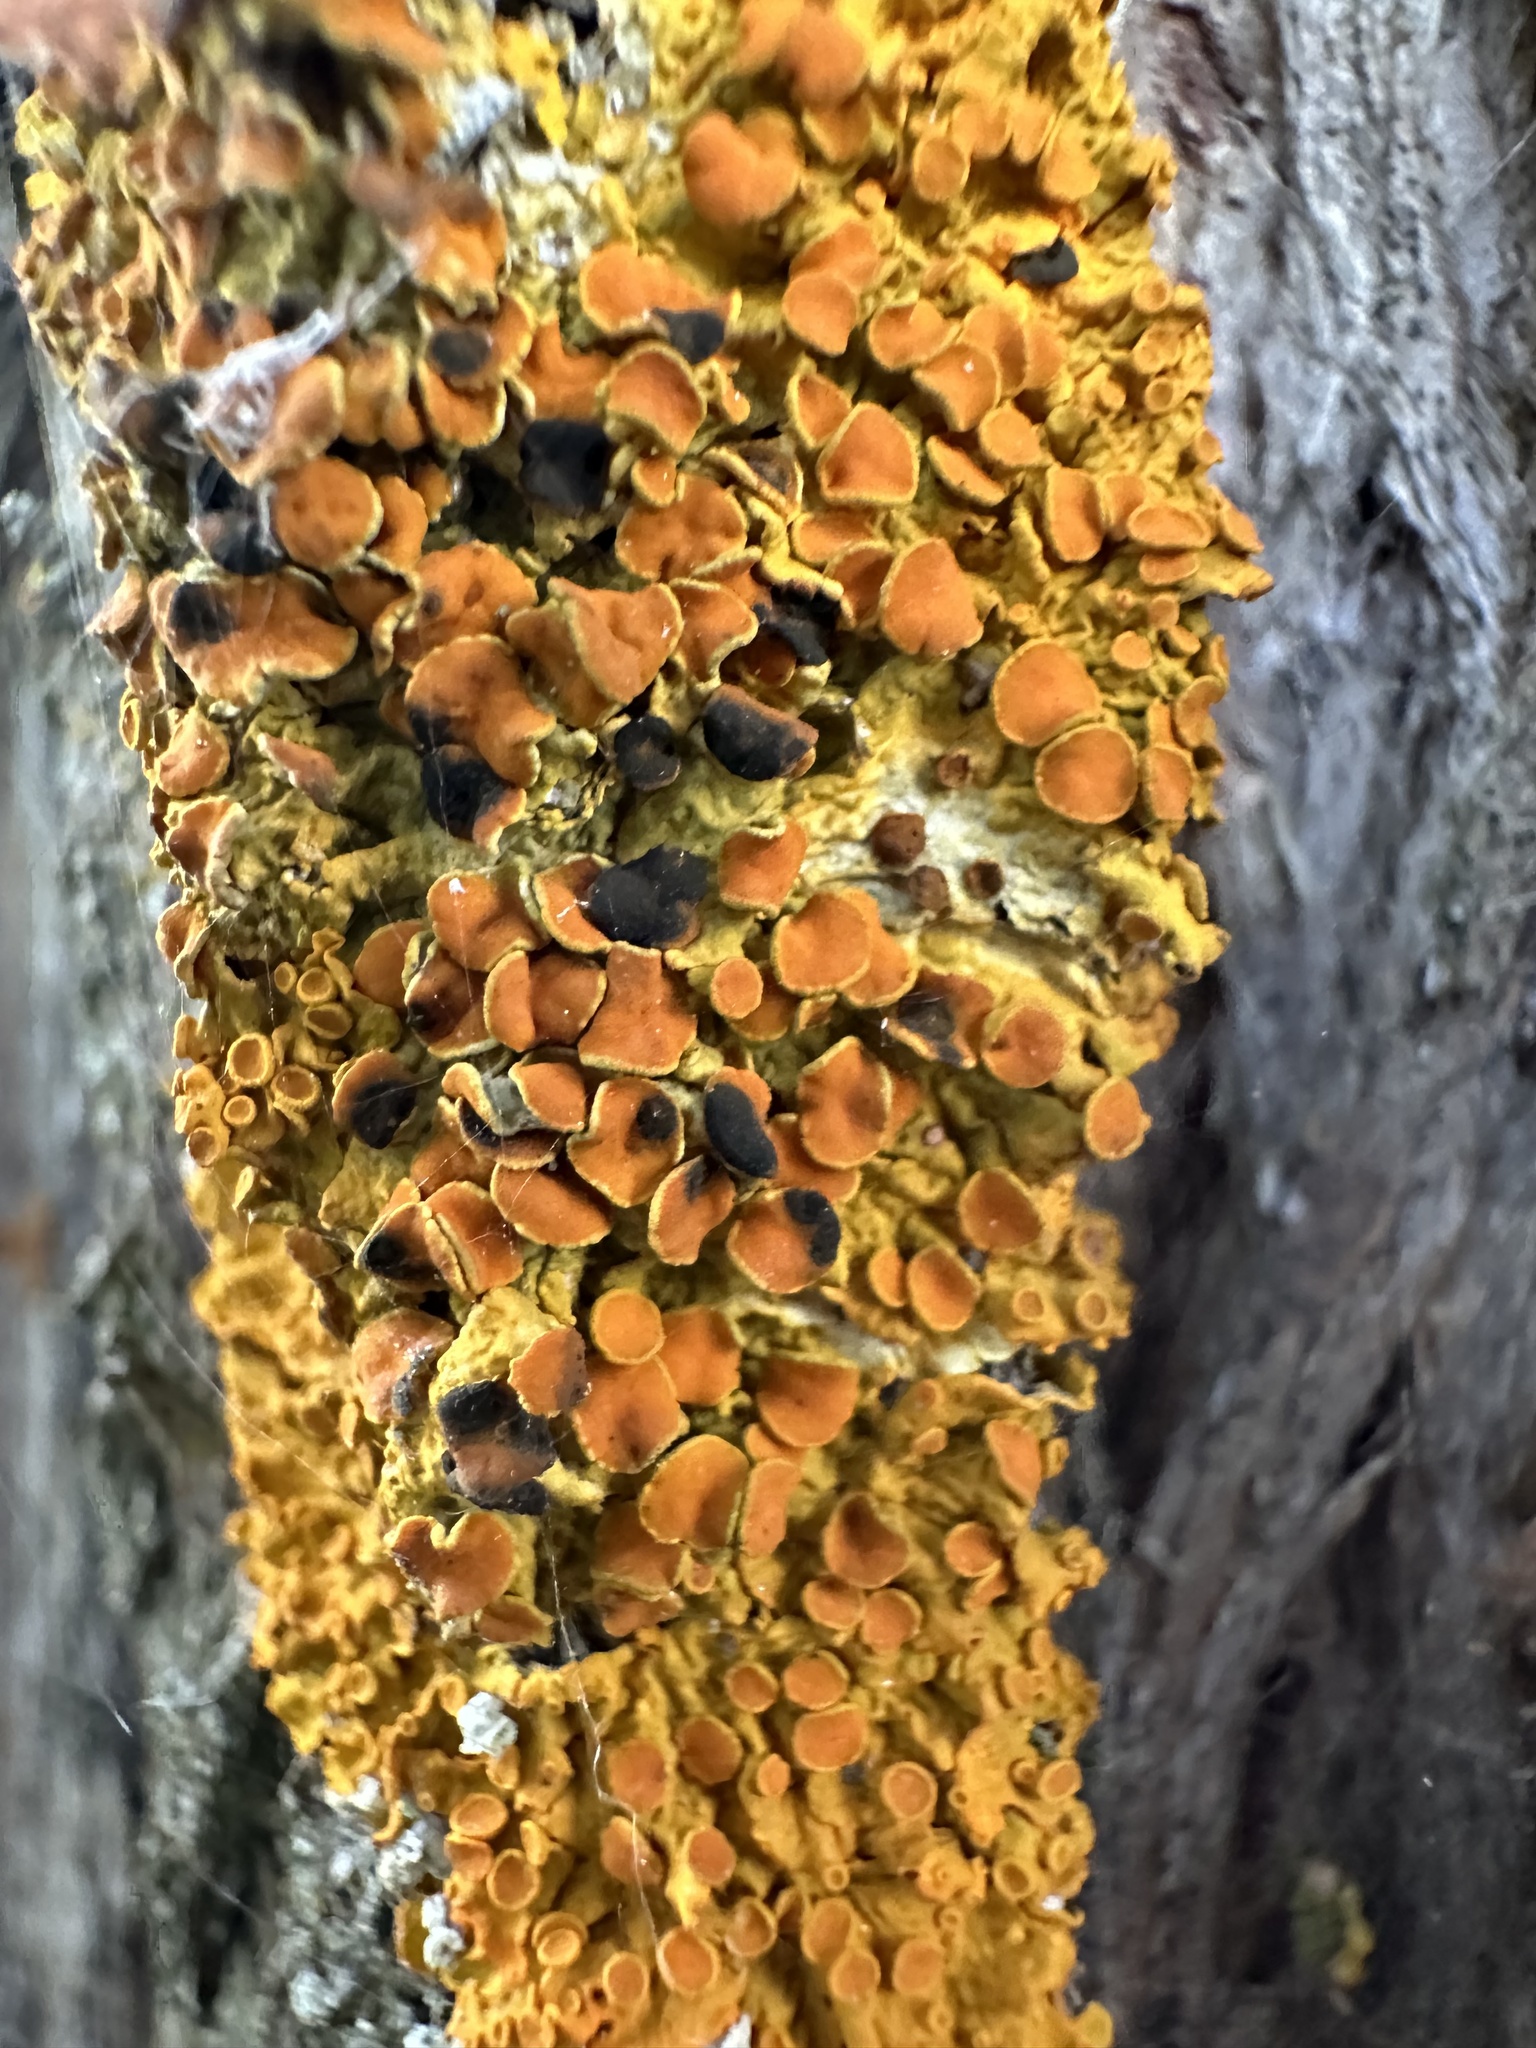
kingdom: Fungi
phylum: Ascomycota
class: Dothideomycetes
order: Mycosphaerellales
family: Teratosphaeriaceae
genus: Xanthoriicola
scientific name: Xanthoriicola physciae
